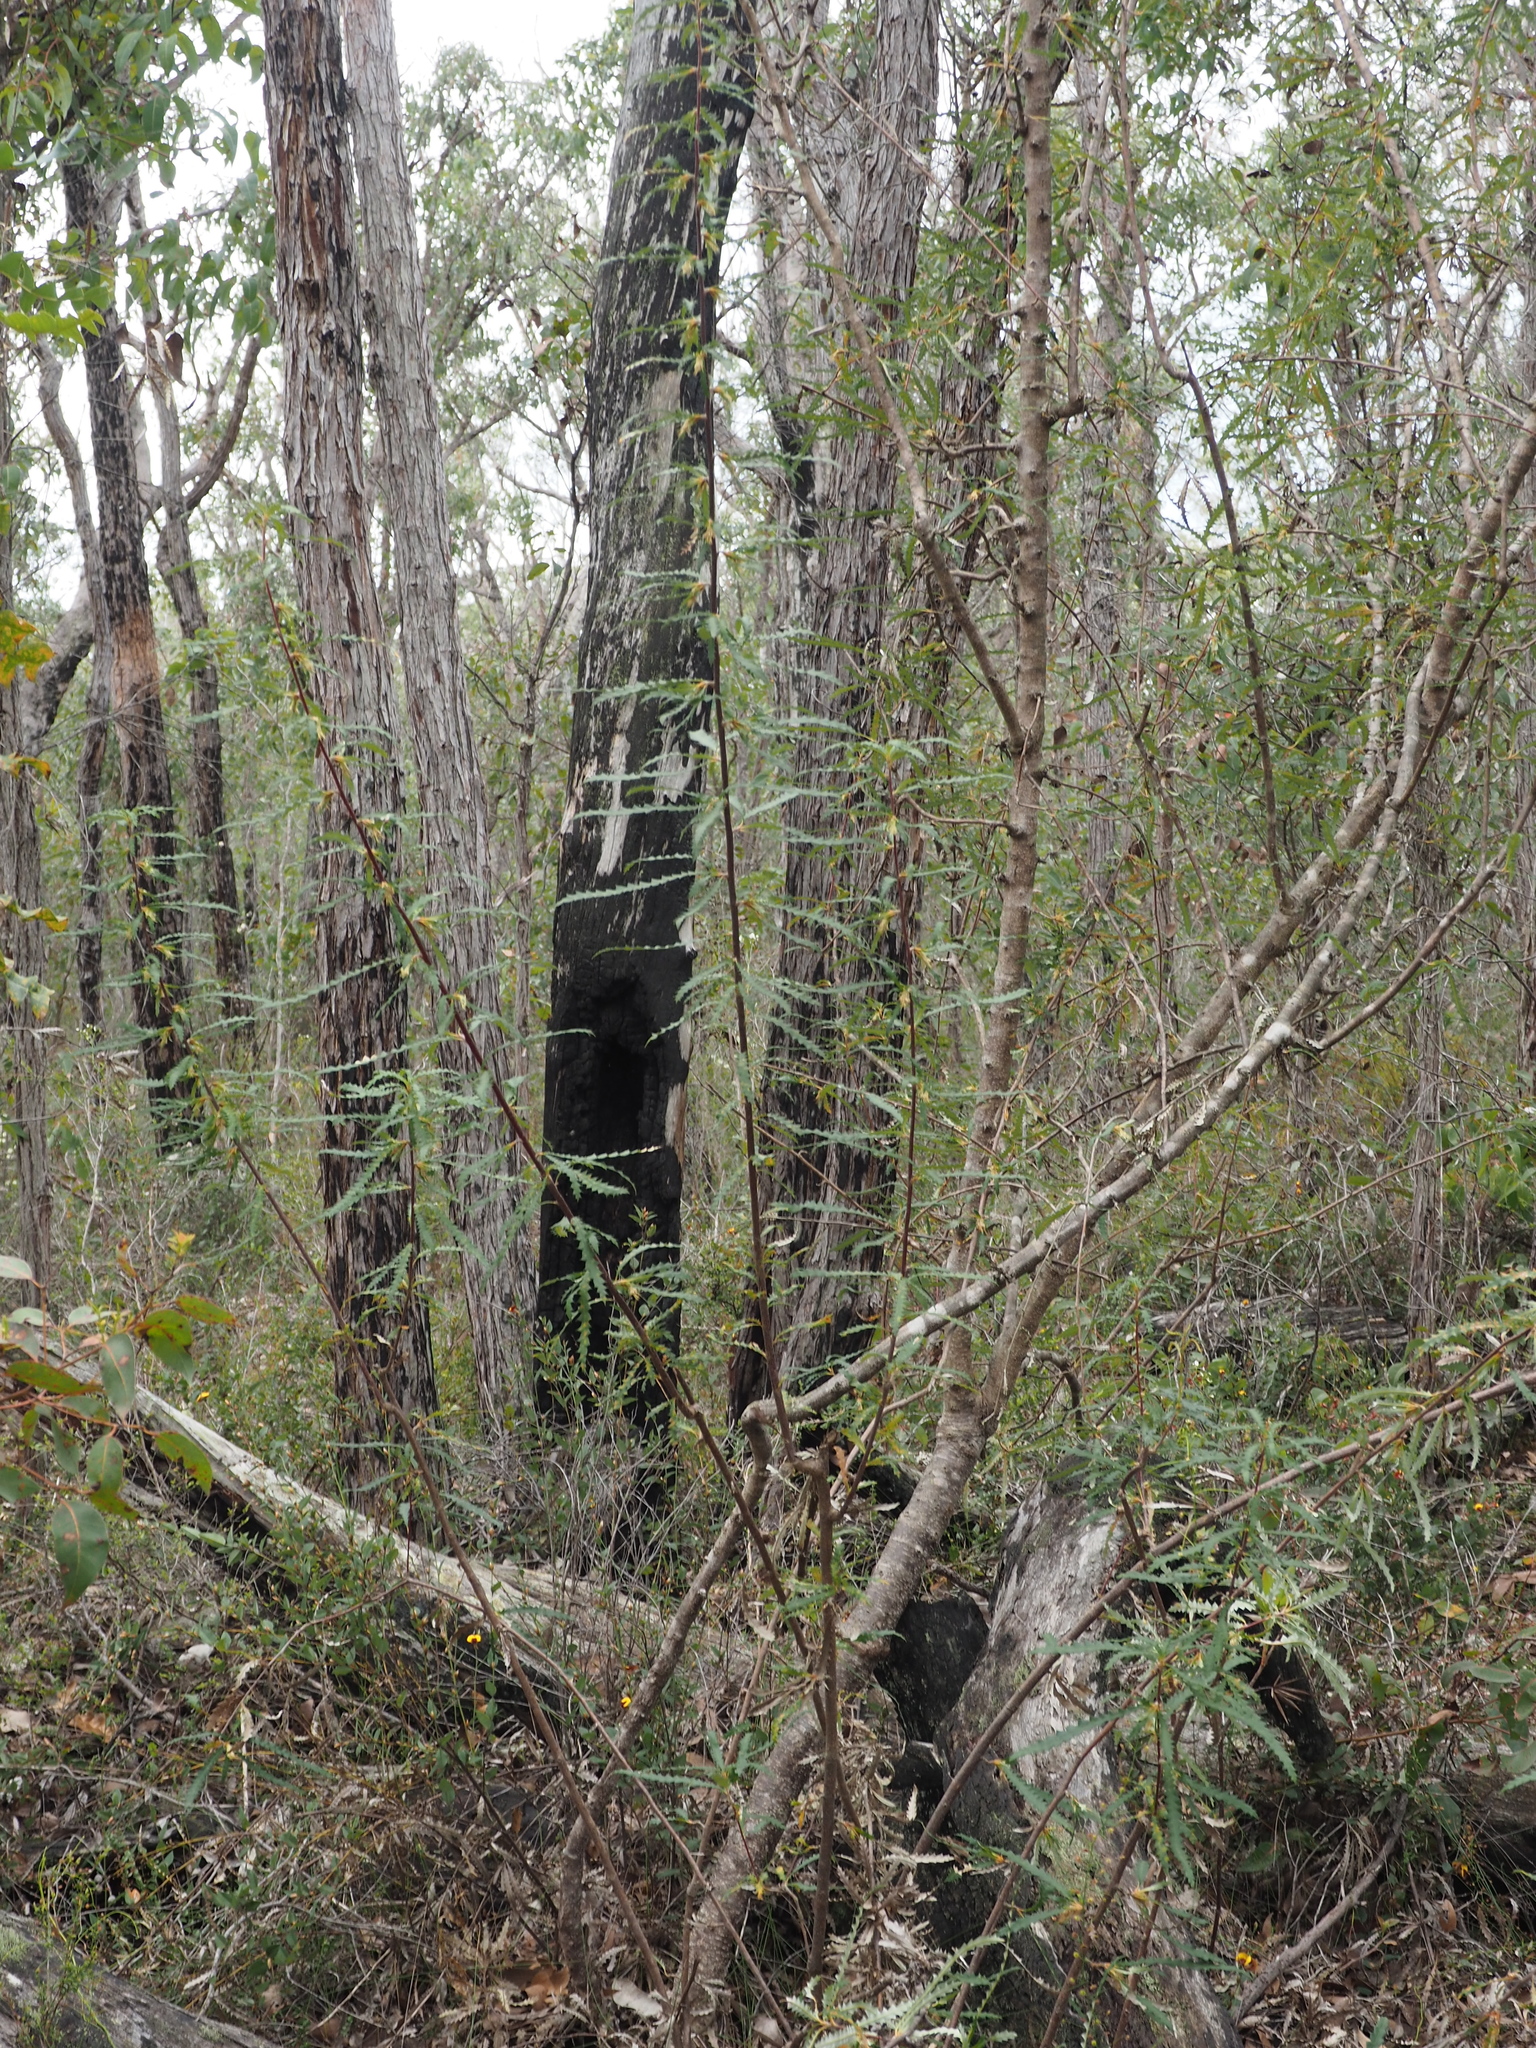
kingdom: Plantae
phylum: Tracheophyta
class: Magnoliopsida
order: Proteales
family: Proteaceae
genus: Banksia
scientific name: Banksia serra
